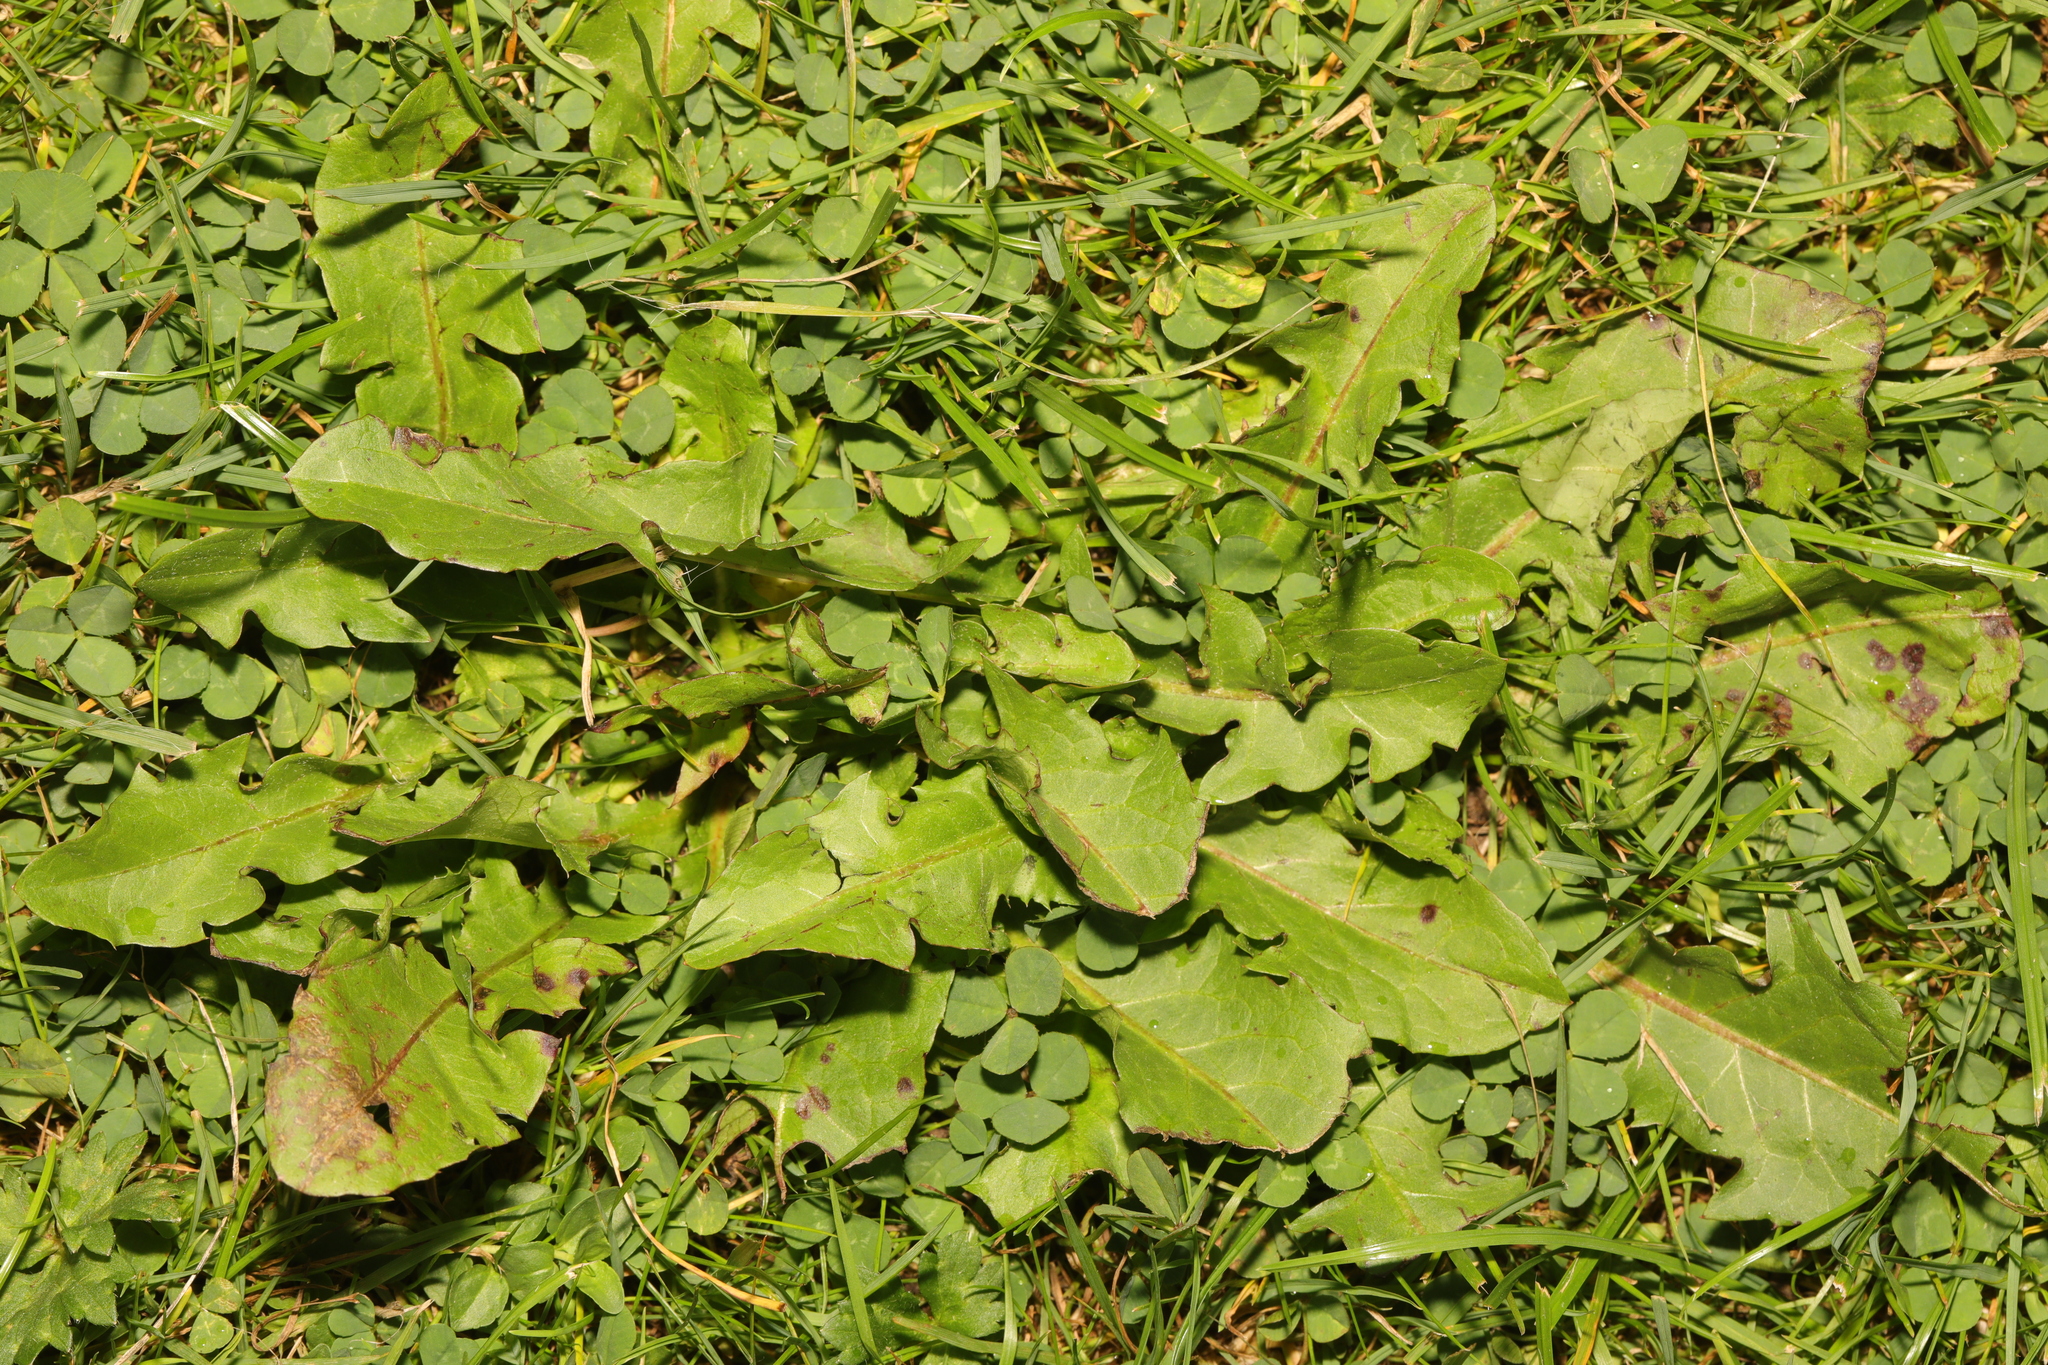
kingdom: Plantae
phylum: Tracheophyta
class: Magnoliopsida
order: Asterales
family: Asteraceae
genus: Taraxacum
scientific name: Taraxacum officinale
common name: Common dandelion
